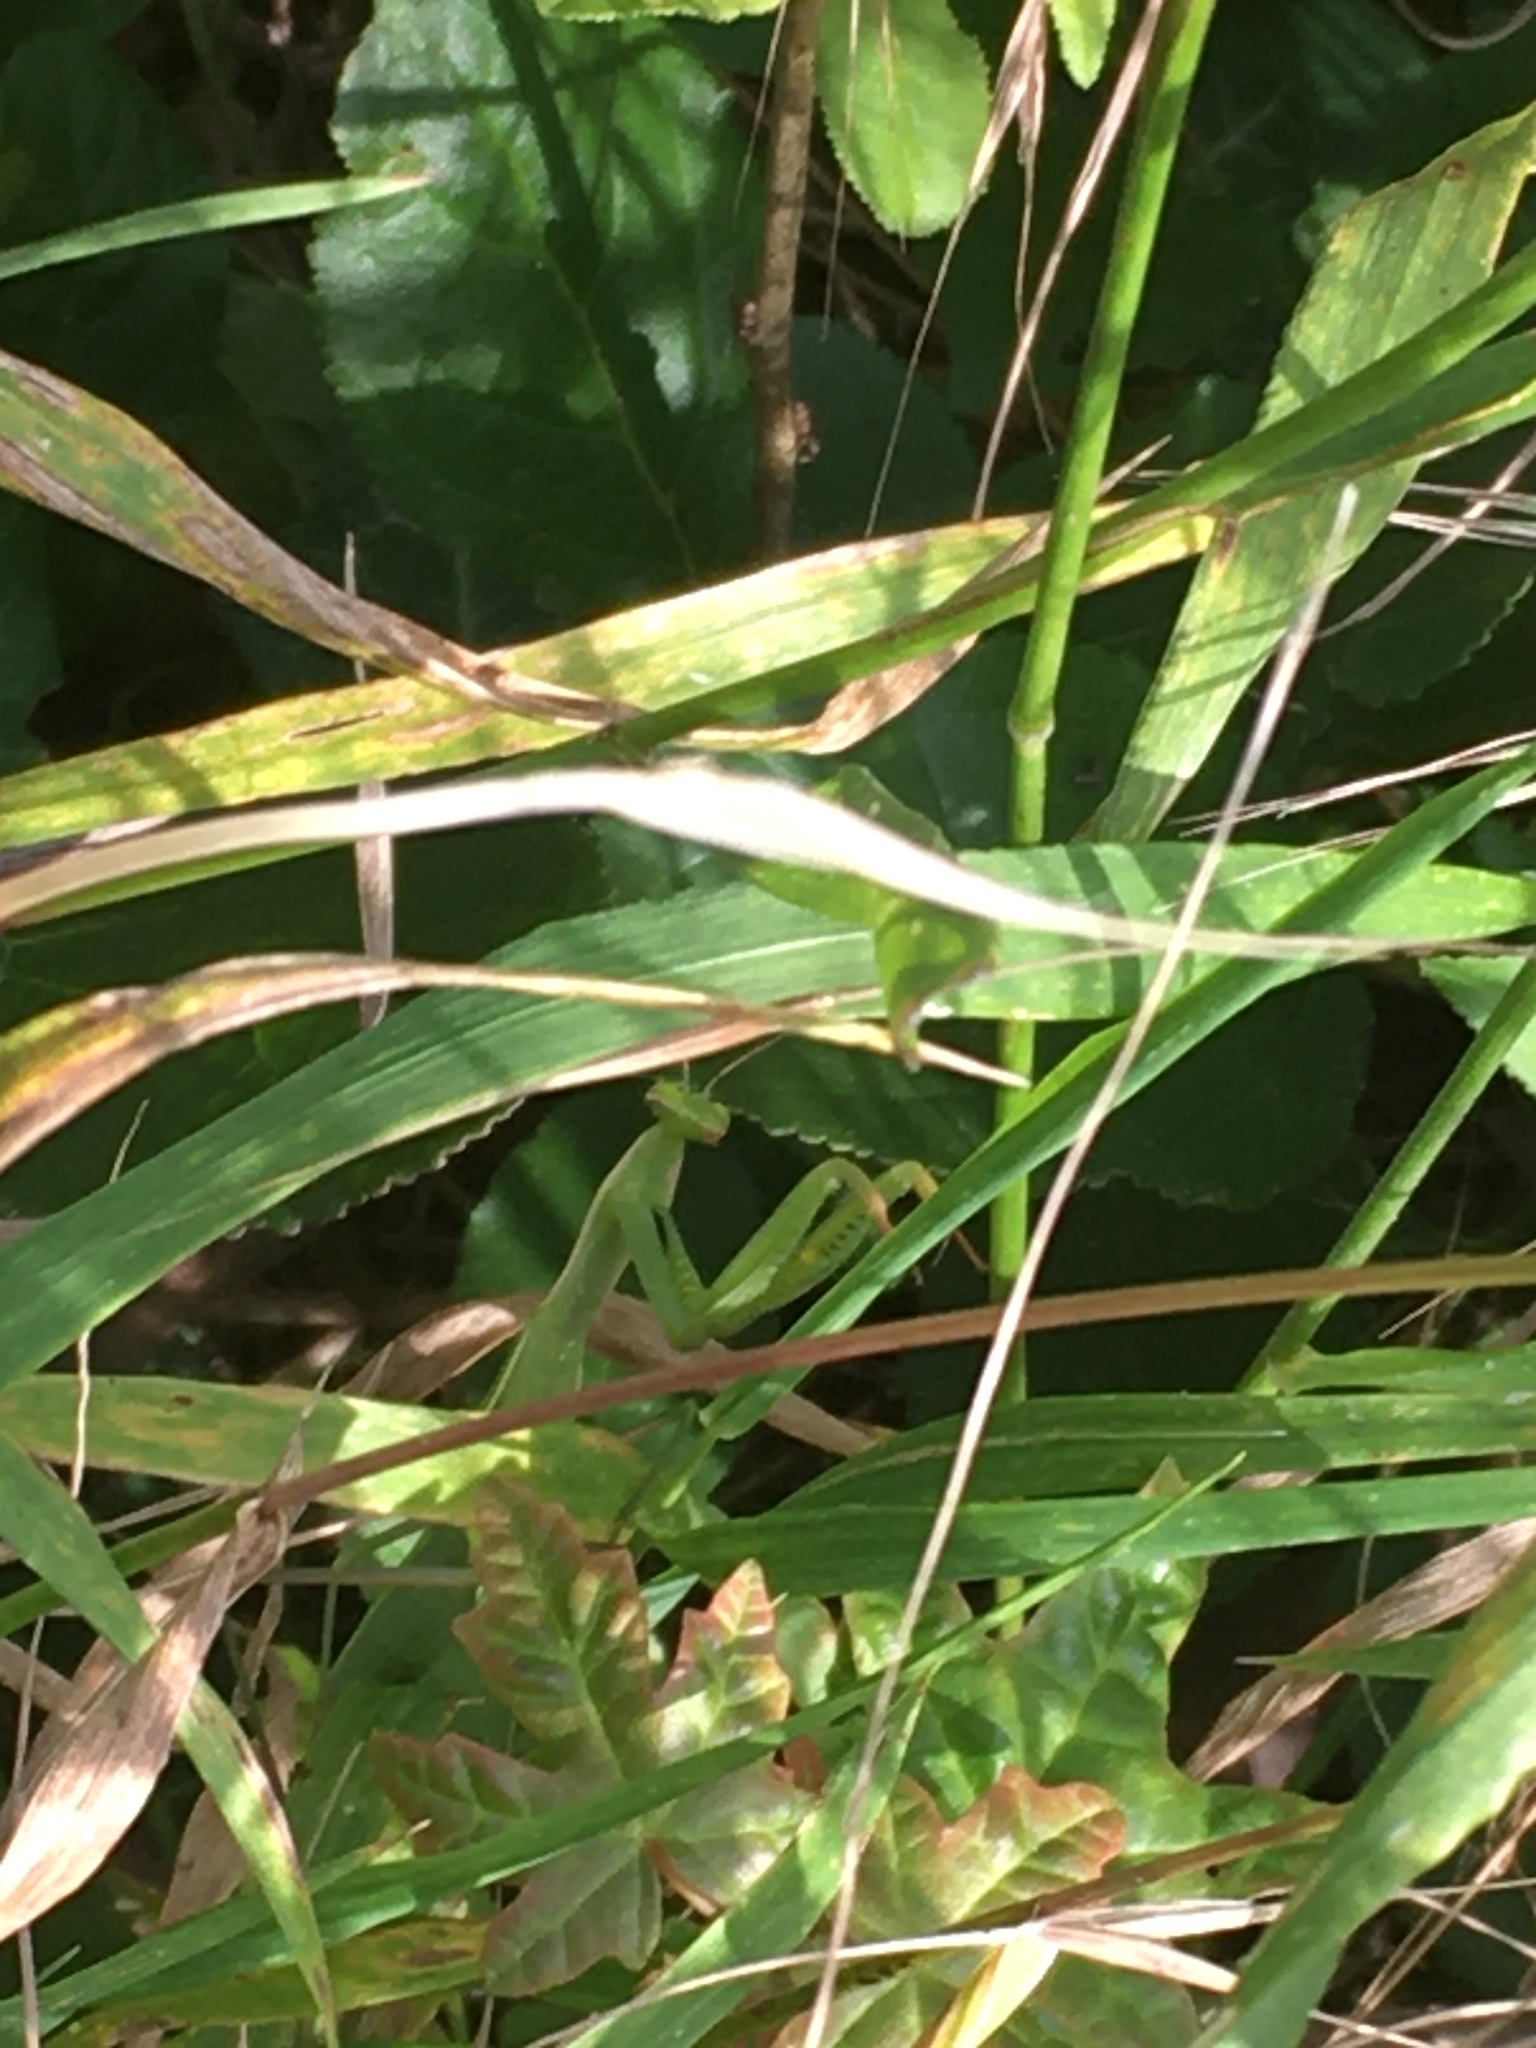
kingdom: Animalia
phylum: Arthropoda
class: Insecta
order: Mantodea
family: Mantidae
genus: Mantis
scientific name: Mantis religiosa
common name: Praying mantis
